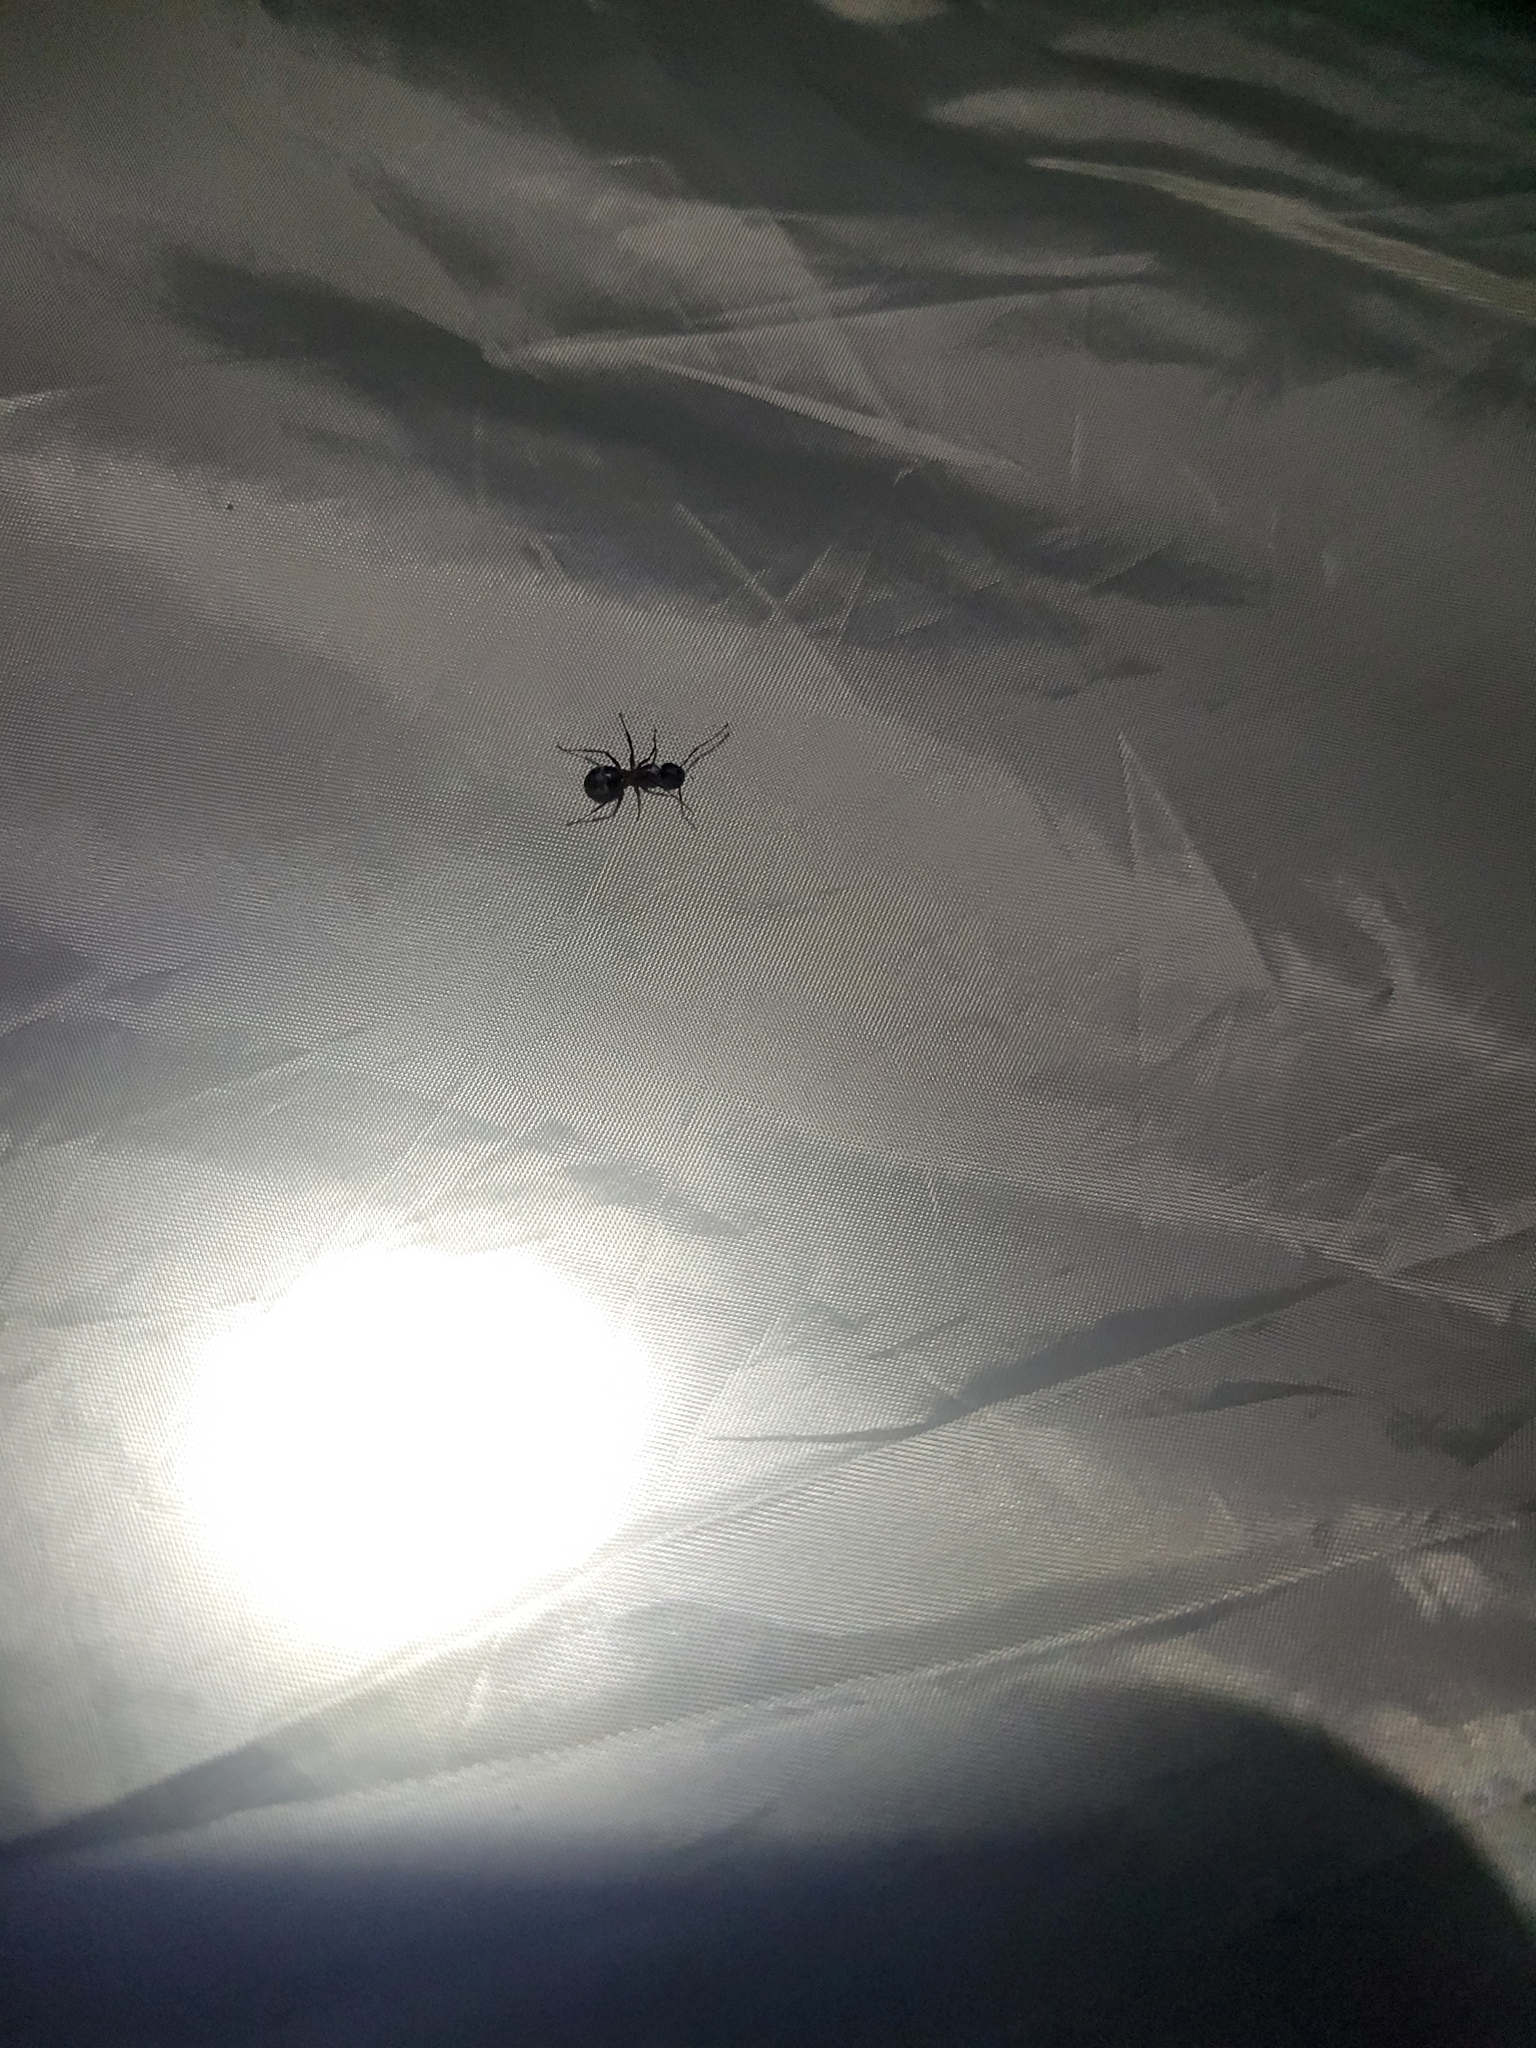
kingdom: Animalia
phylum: Arthropoda
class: Insecta
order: Hymenoptera
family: Formicidae
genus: Camponotus
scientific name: Camponotus pennsylvanicus
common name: Black carpenter ant
